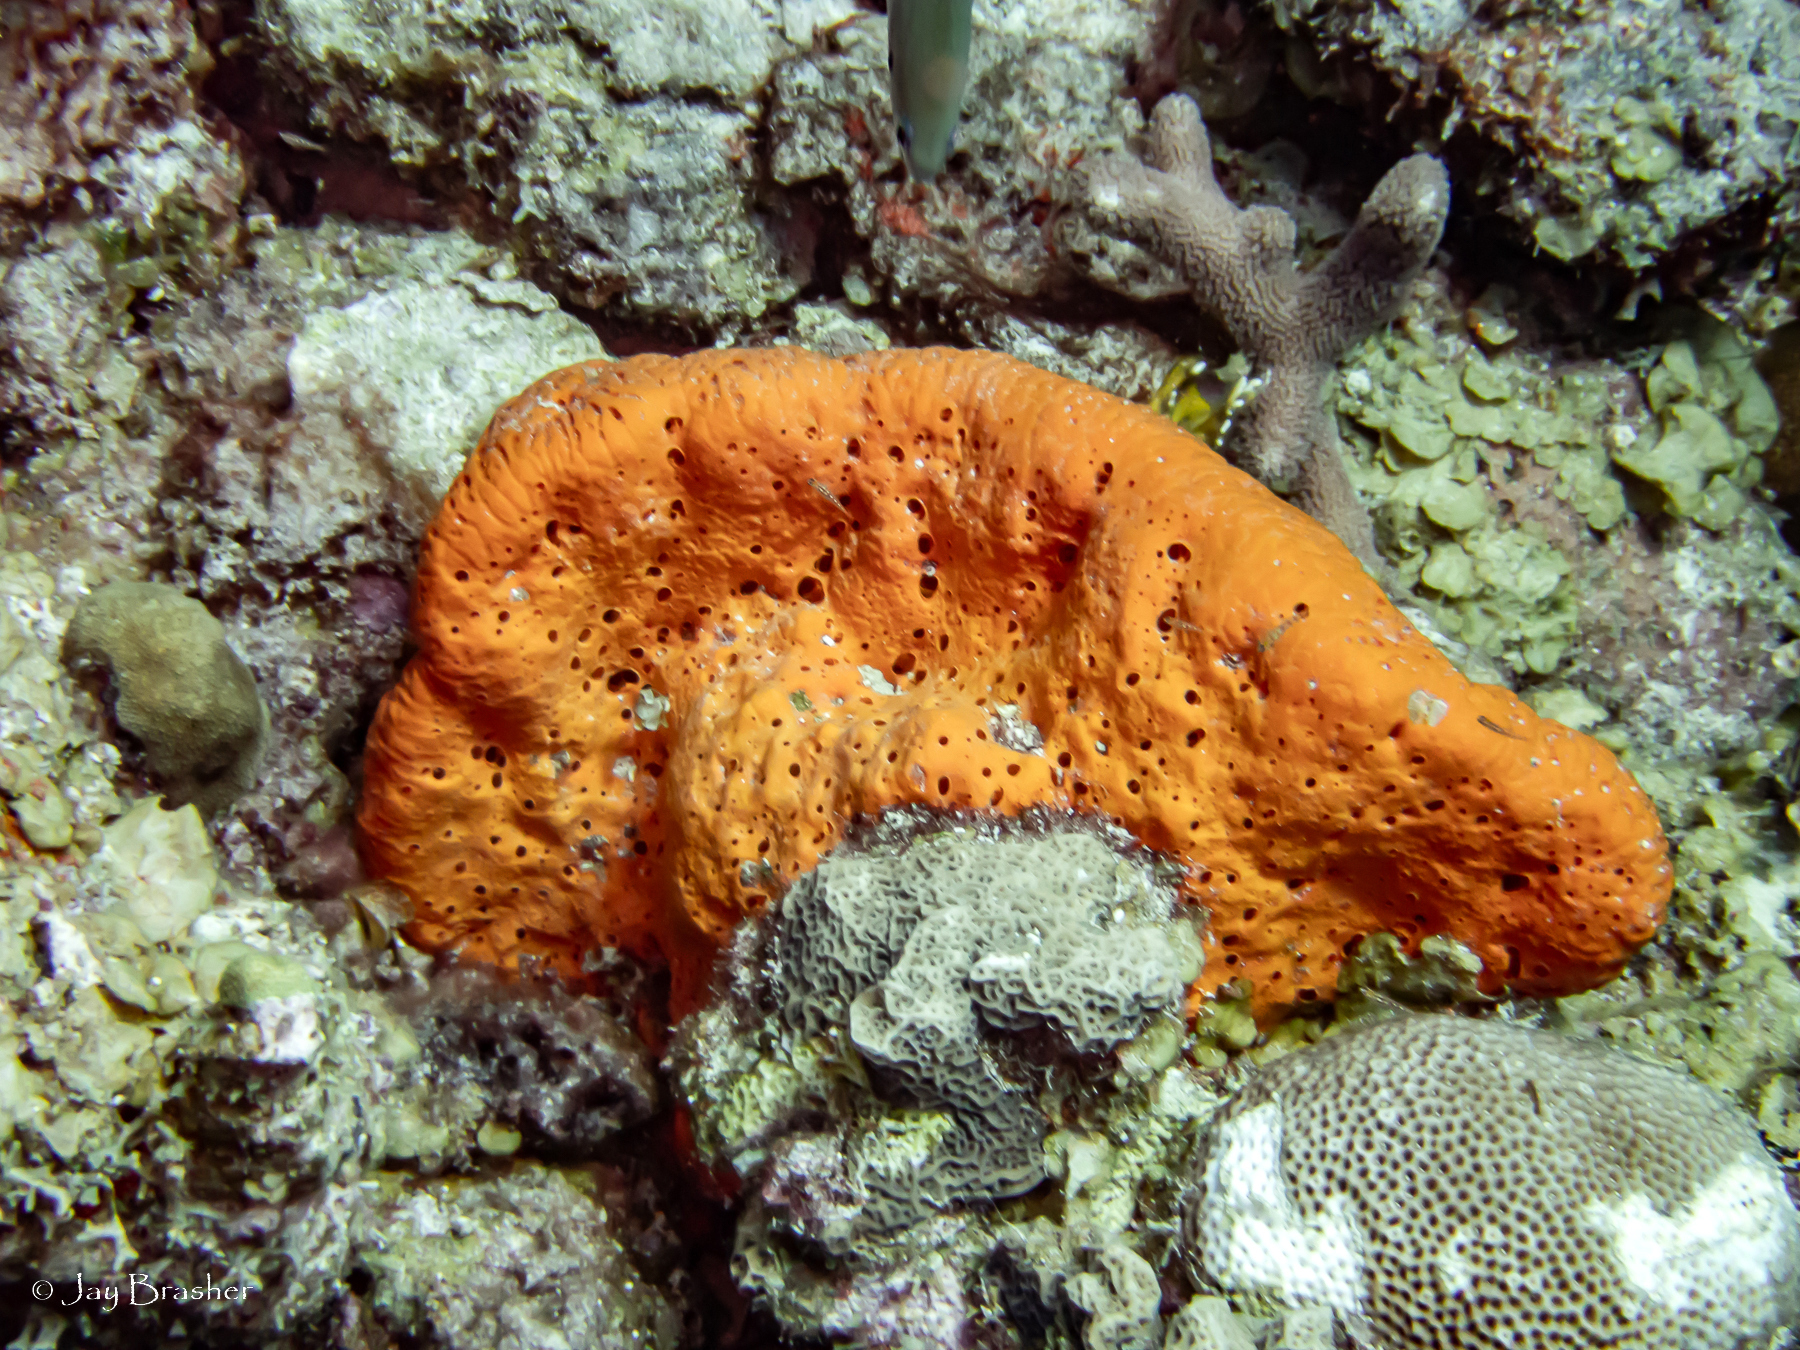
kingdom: Animalia
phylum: Porifera
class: Demospongiae
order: Agelasida
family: Agelasidae
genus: Agelas
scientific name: Agelas clathrodes
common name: Orange elephant ear sponge
